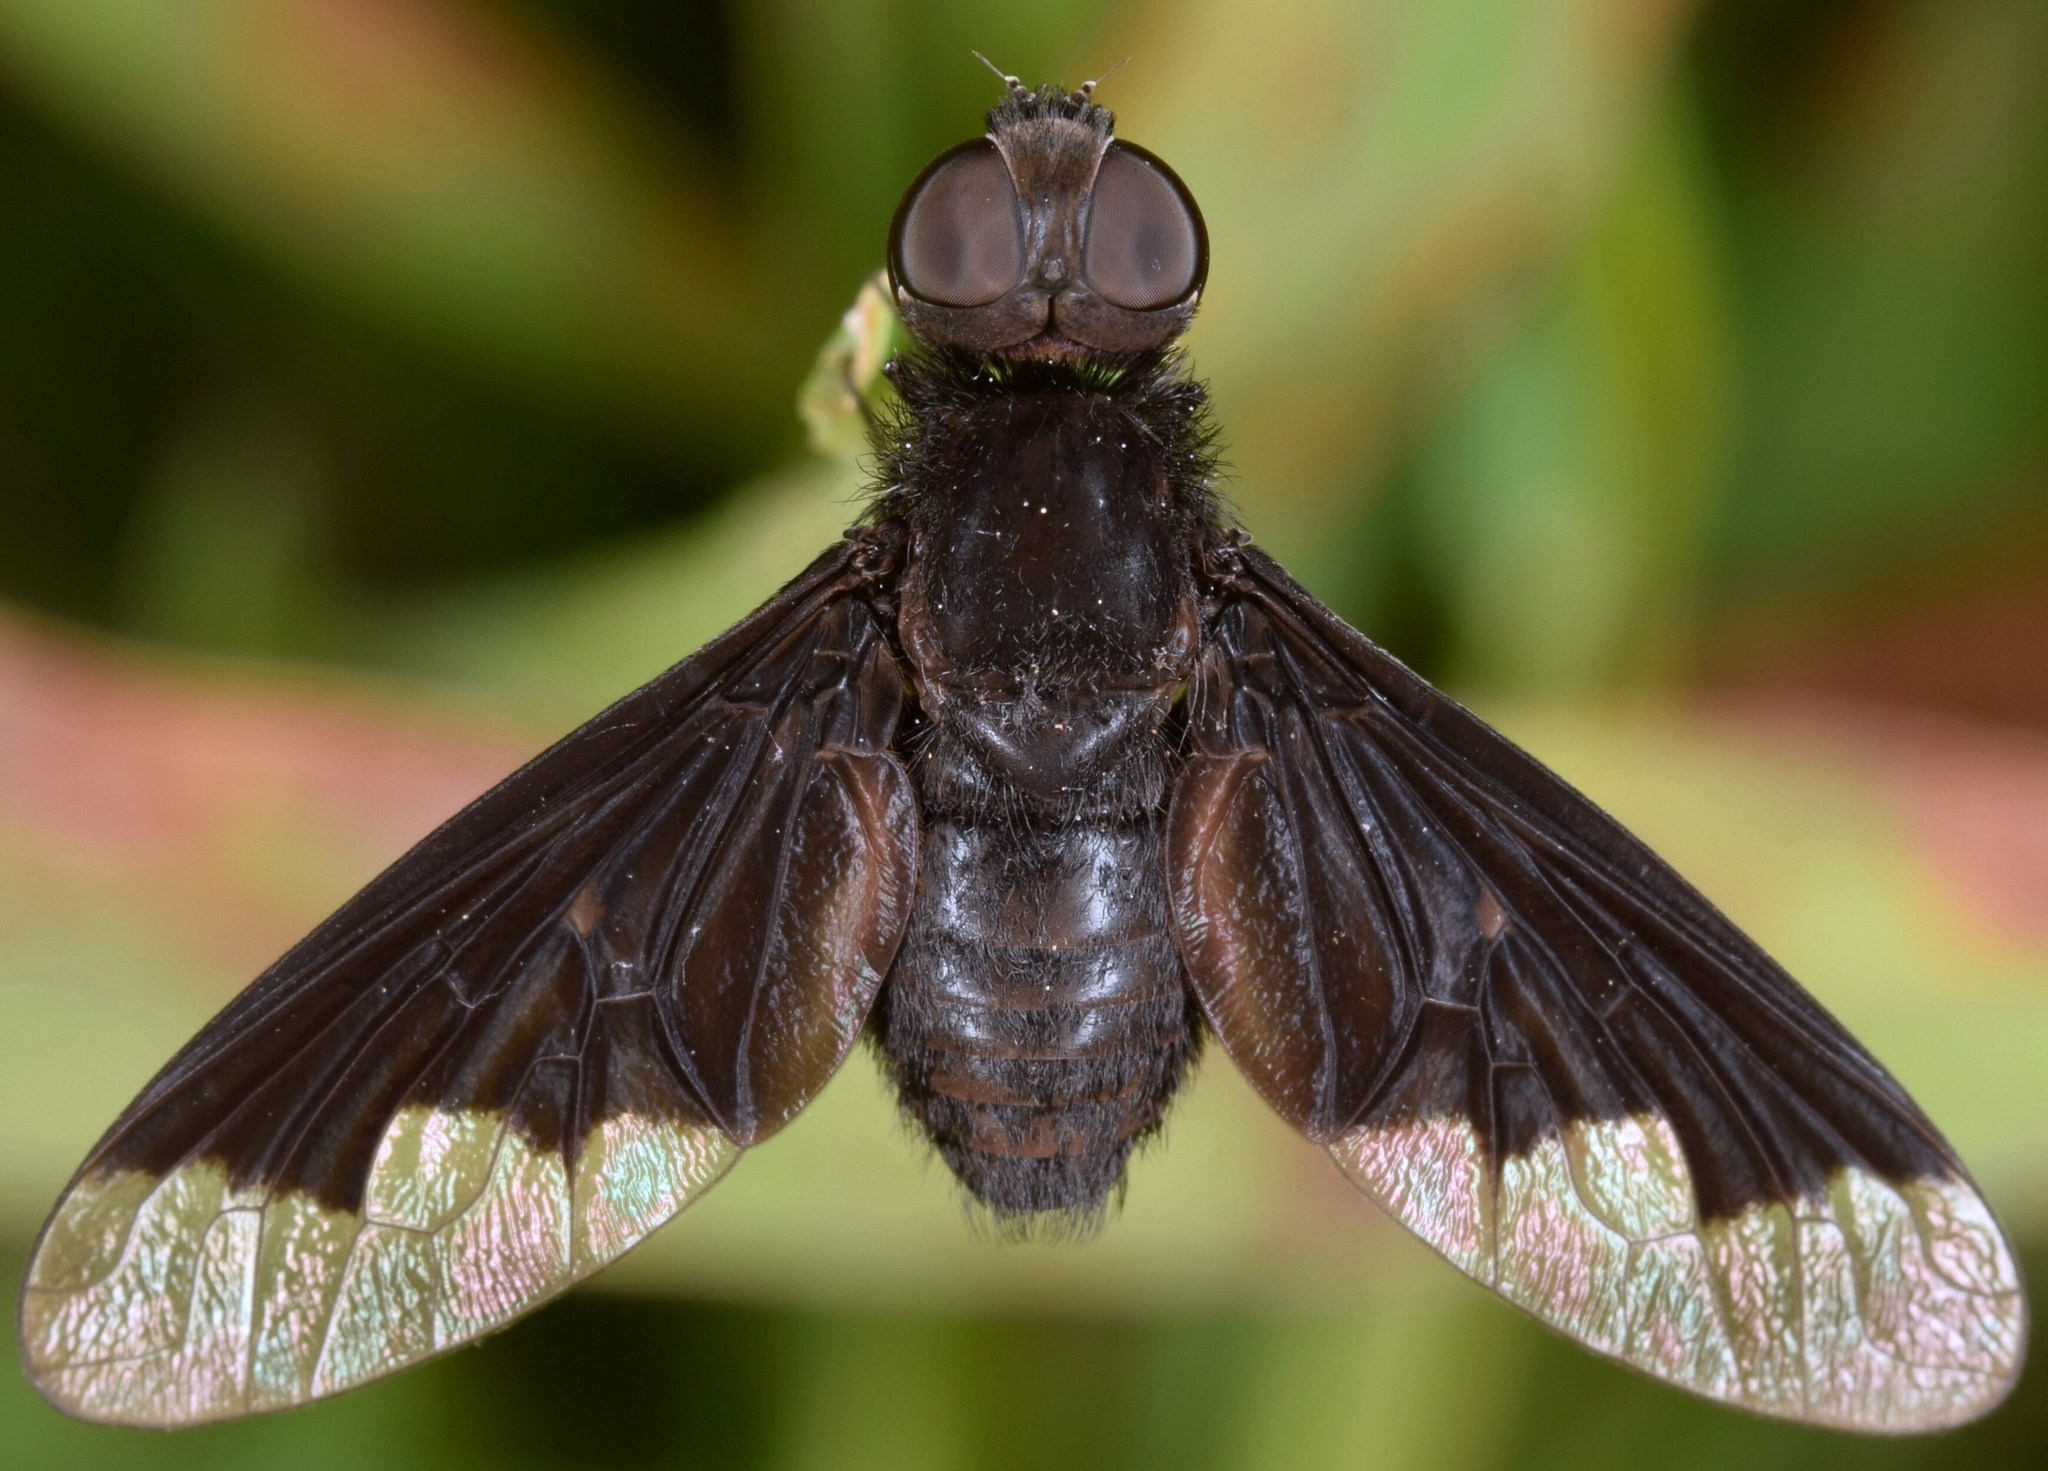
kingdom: Animalia
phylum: Arthropoda
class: Insecta
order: Diptera
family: Bombyliidae
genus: Anthrax
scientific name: Anthrax analis
